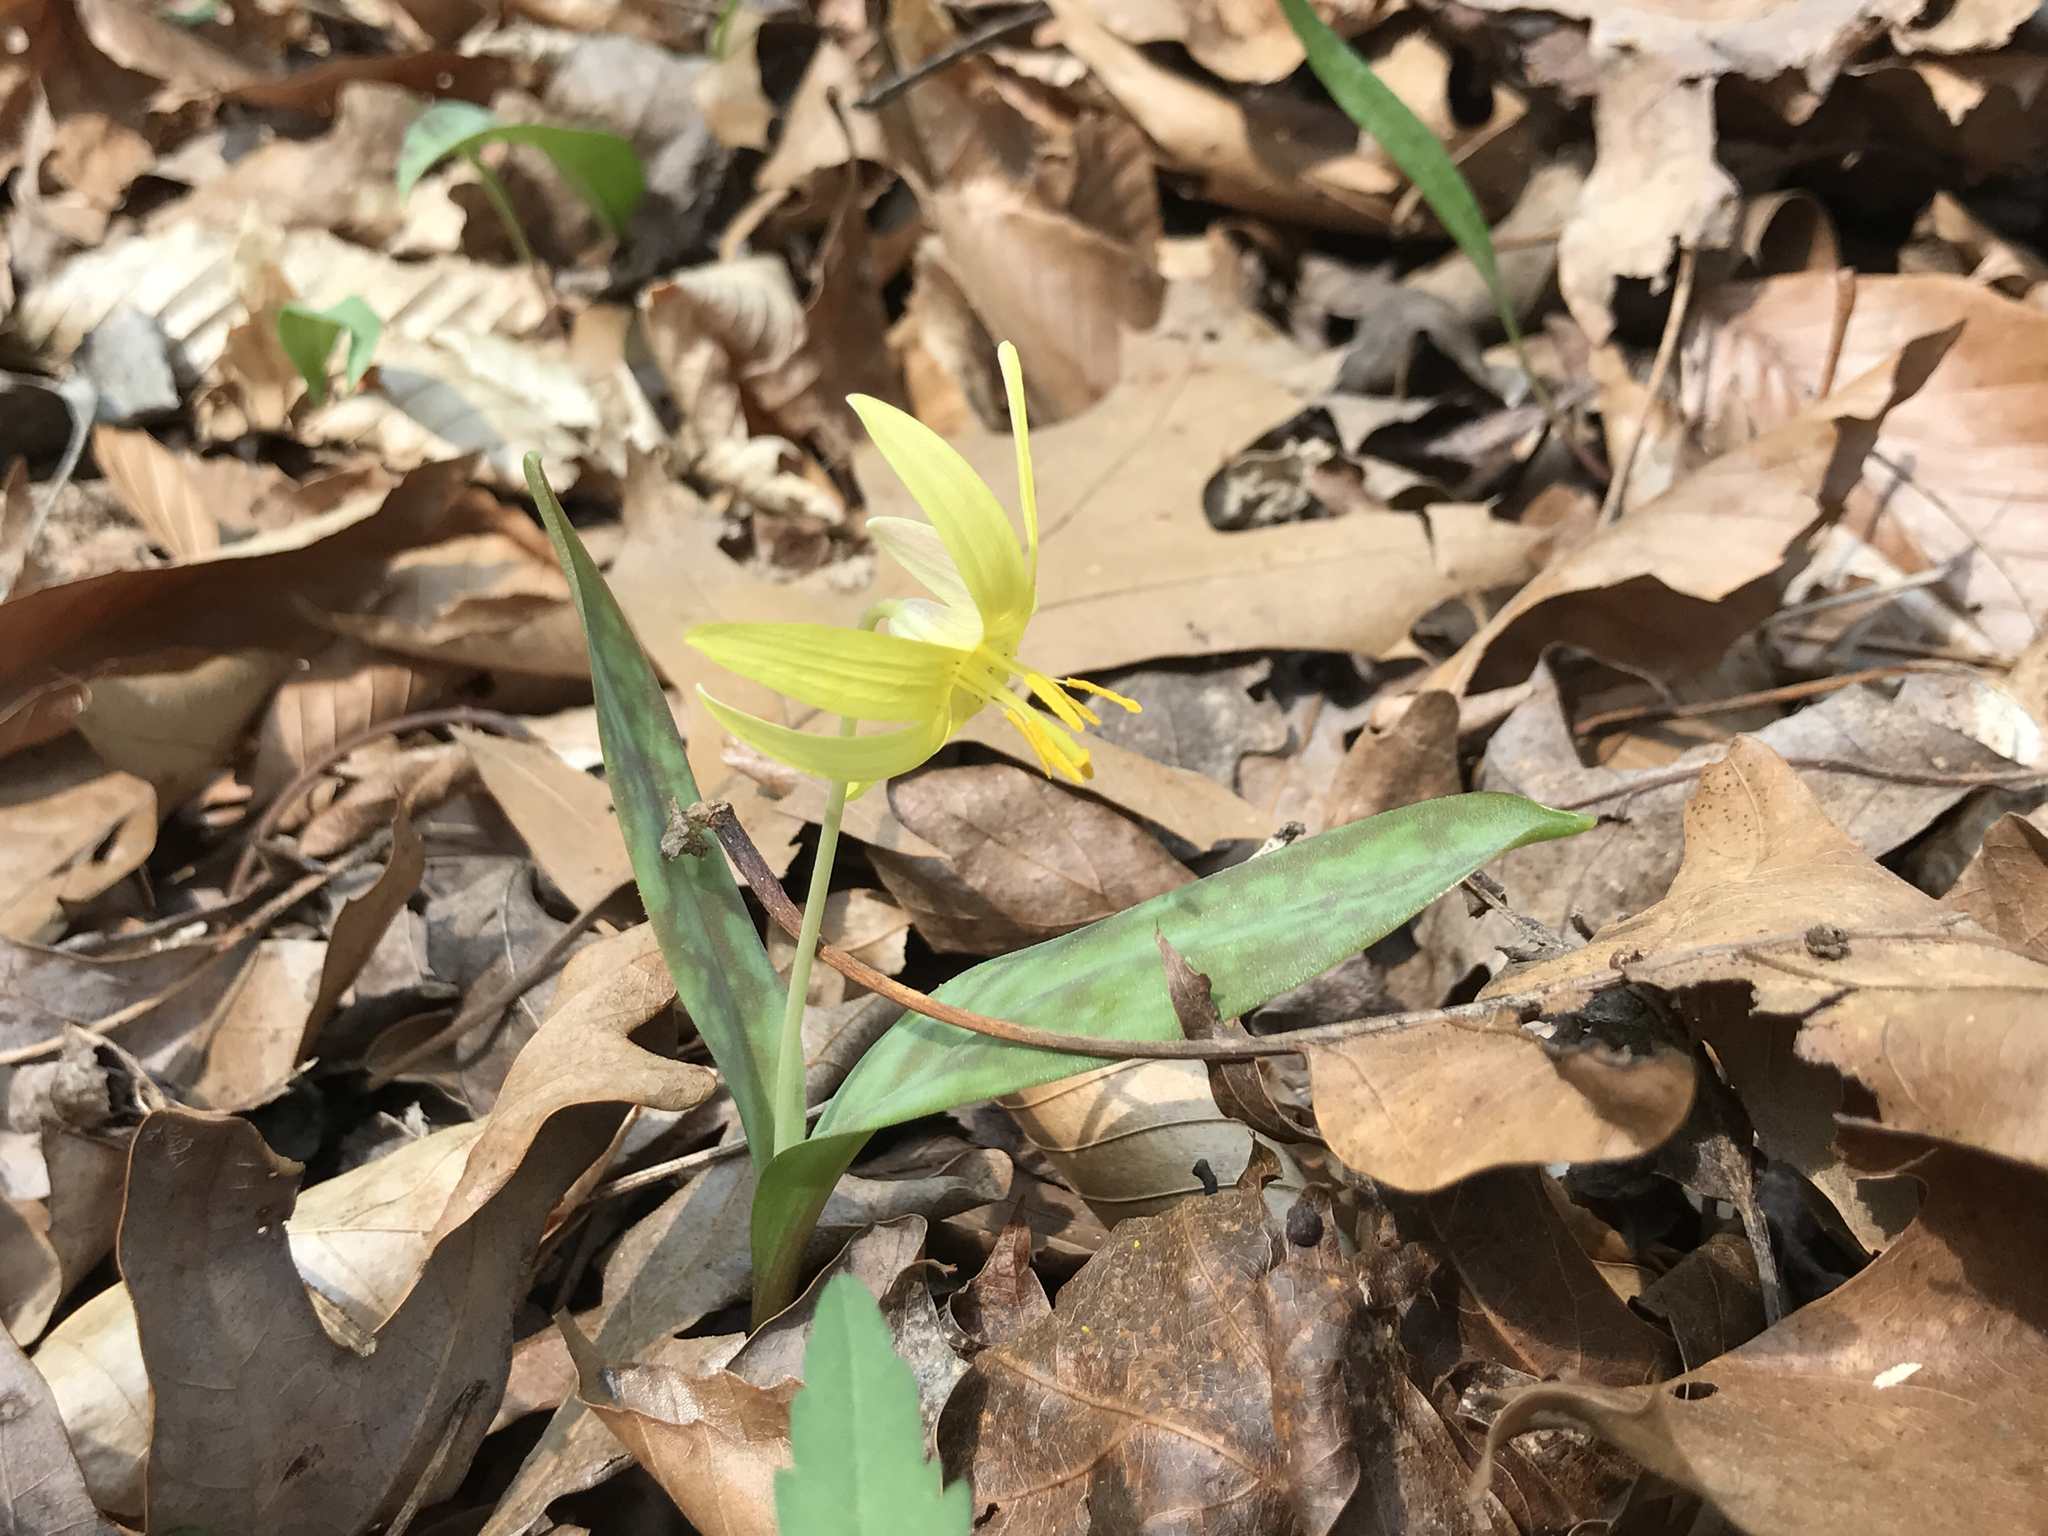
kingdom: Plantae
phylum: Tracheophyta
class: Liliopsida
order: Liliales
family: Liliaceae
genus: Erythronium
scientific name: Erythronium americanum
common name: Yellow adder's-tongue
